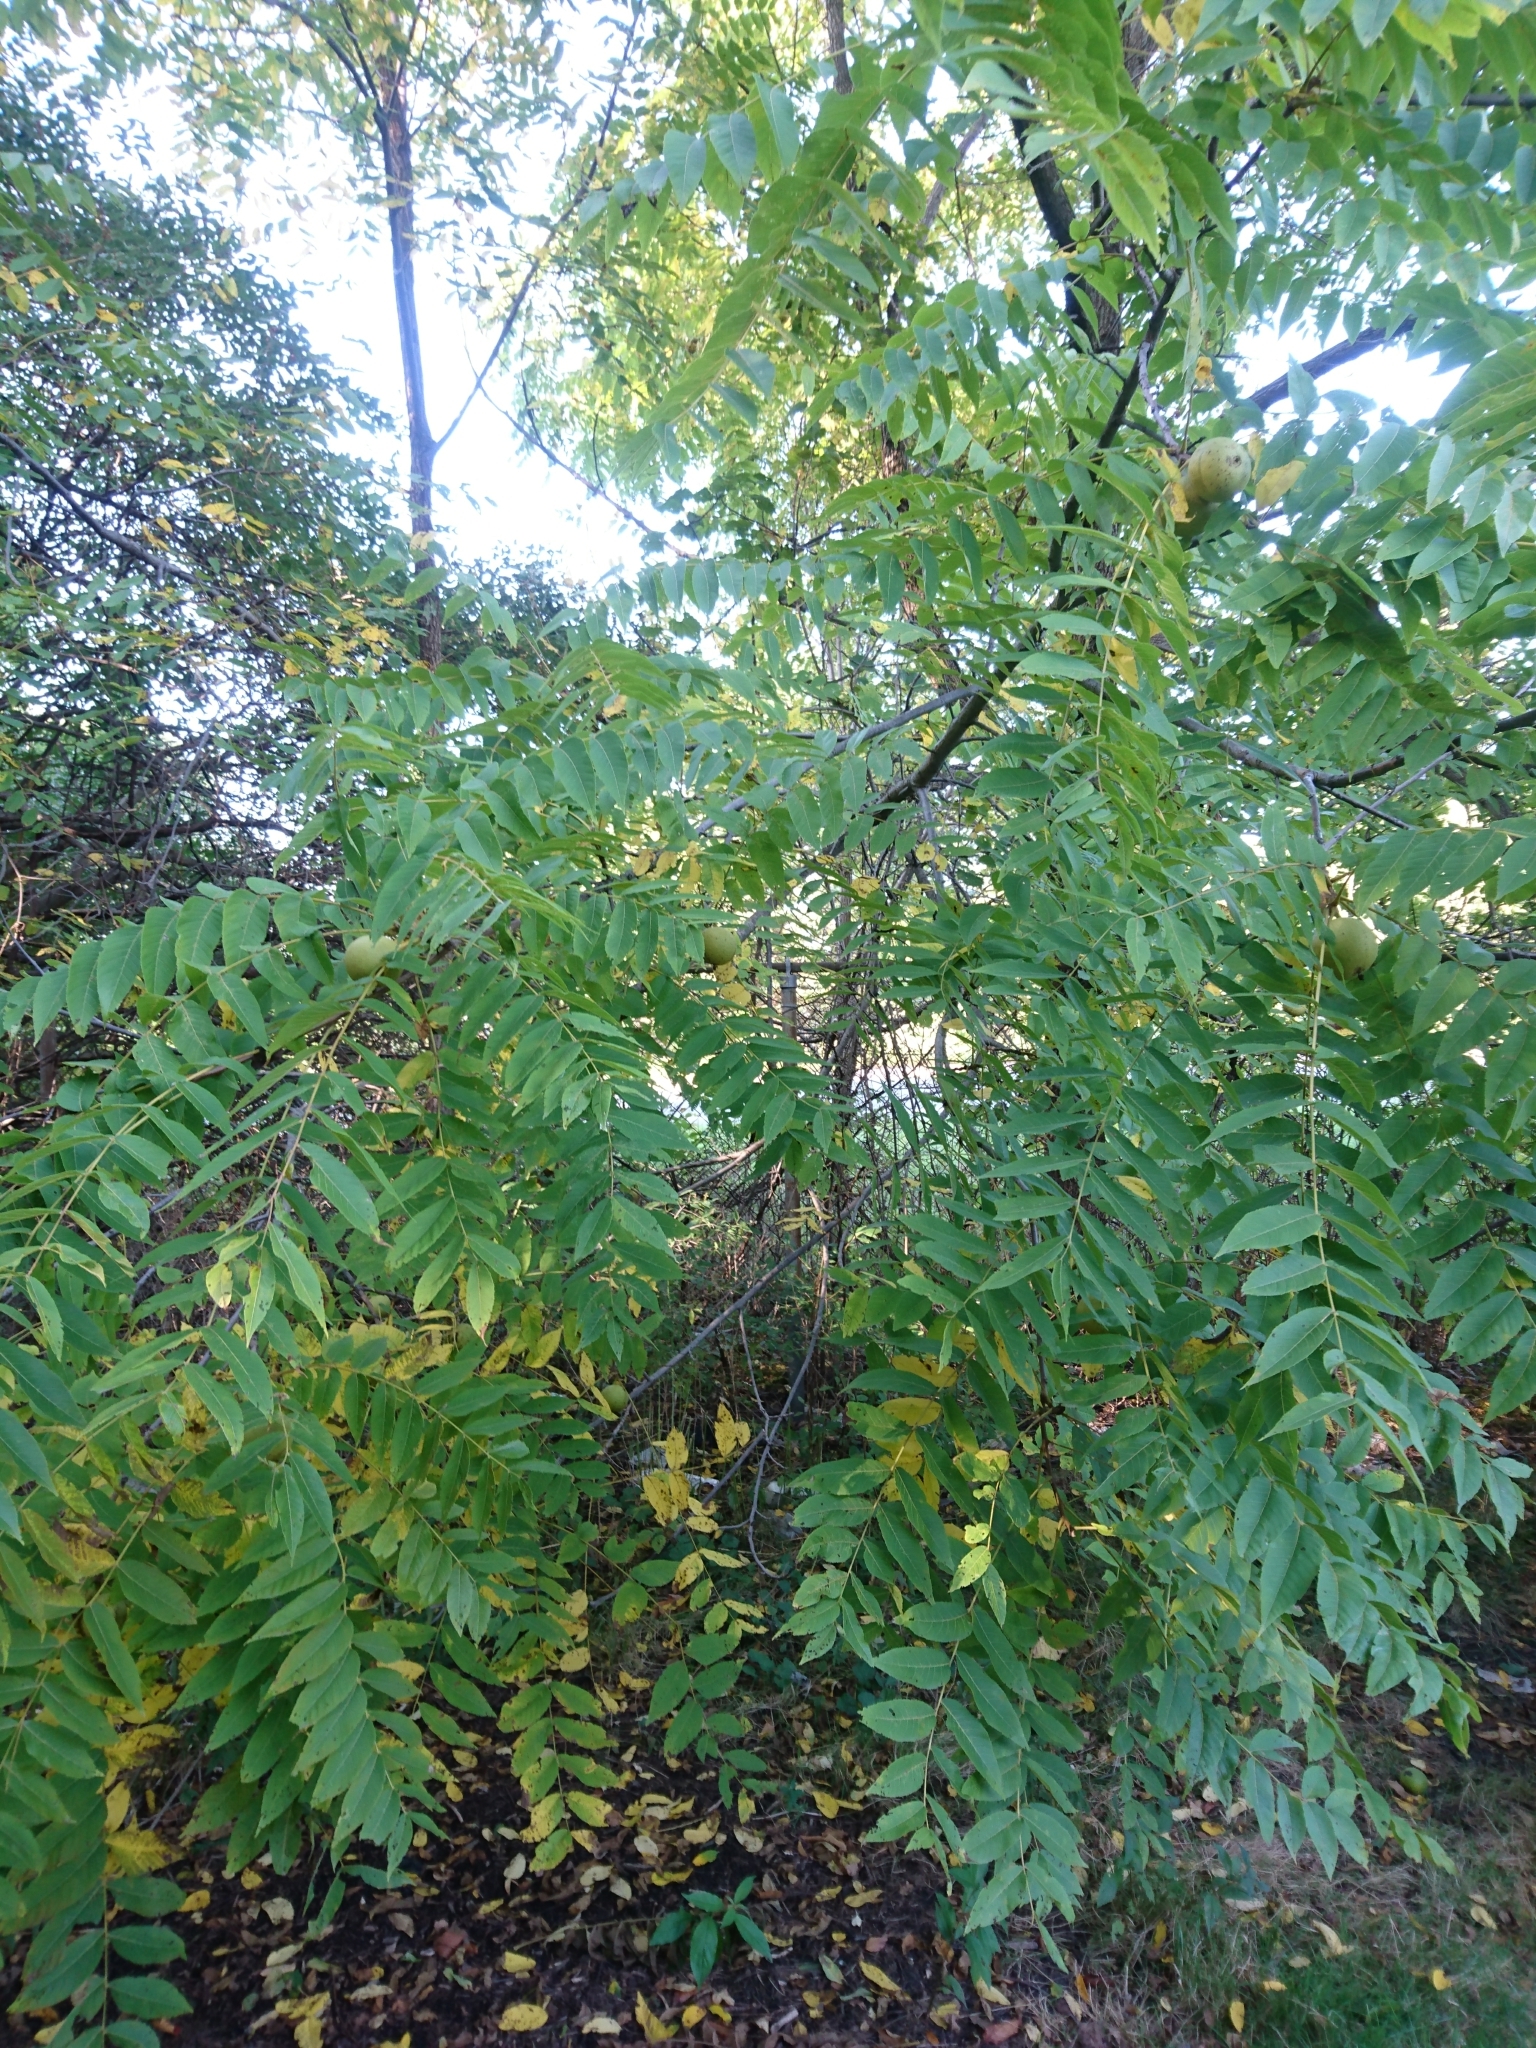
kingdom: Plantae
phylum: Tracheophyta
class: Magnoliopsida
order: Fagales
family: Juglandaceae
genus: Juglans
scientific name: Juglans nigra
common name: Black walnut
